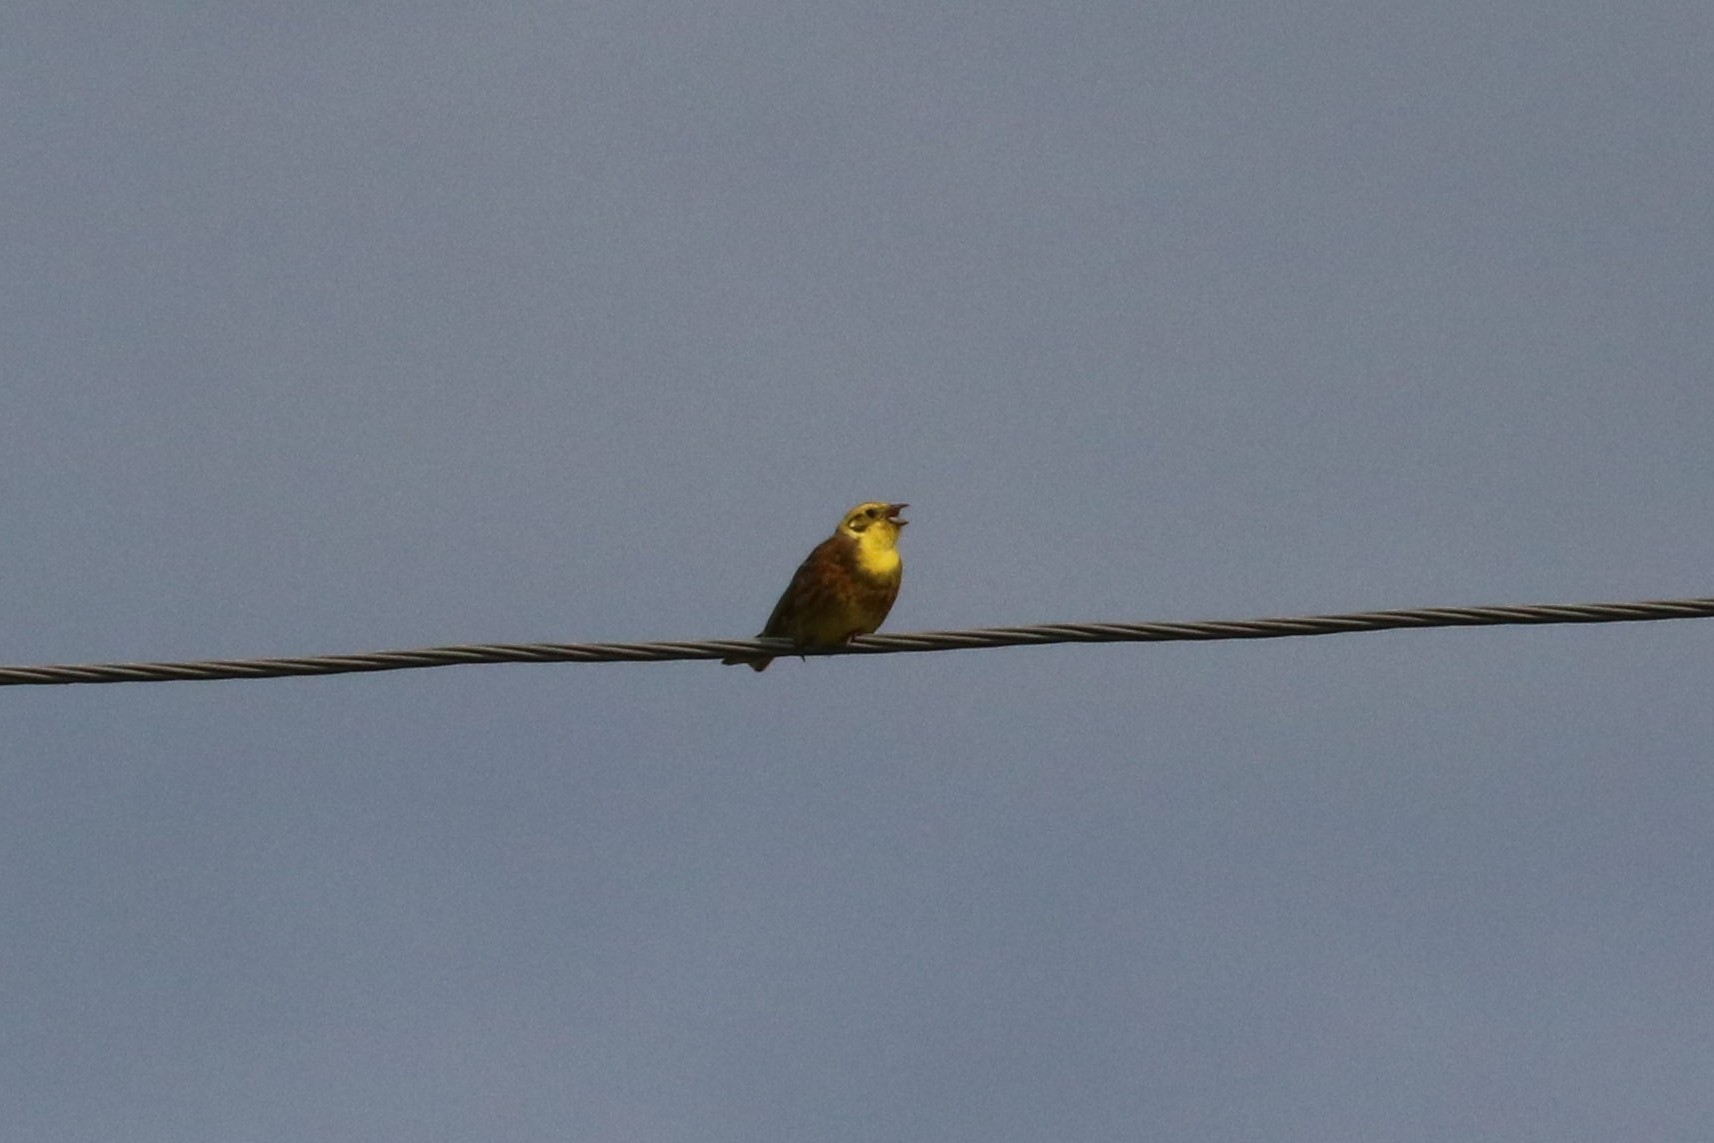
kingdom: Animalia
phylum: Chordata
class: Aves
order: Passeriformes
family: Emberizidae
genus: Emberiza
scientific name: Emberiza citrinella
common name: Yellowhammer
